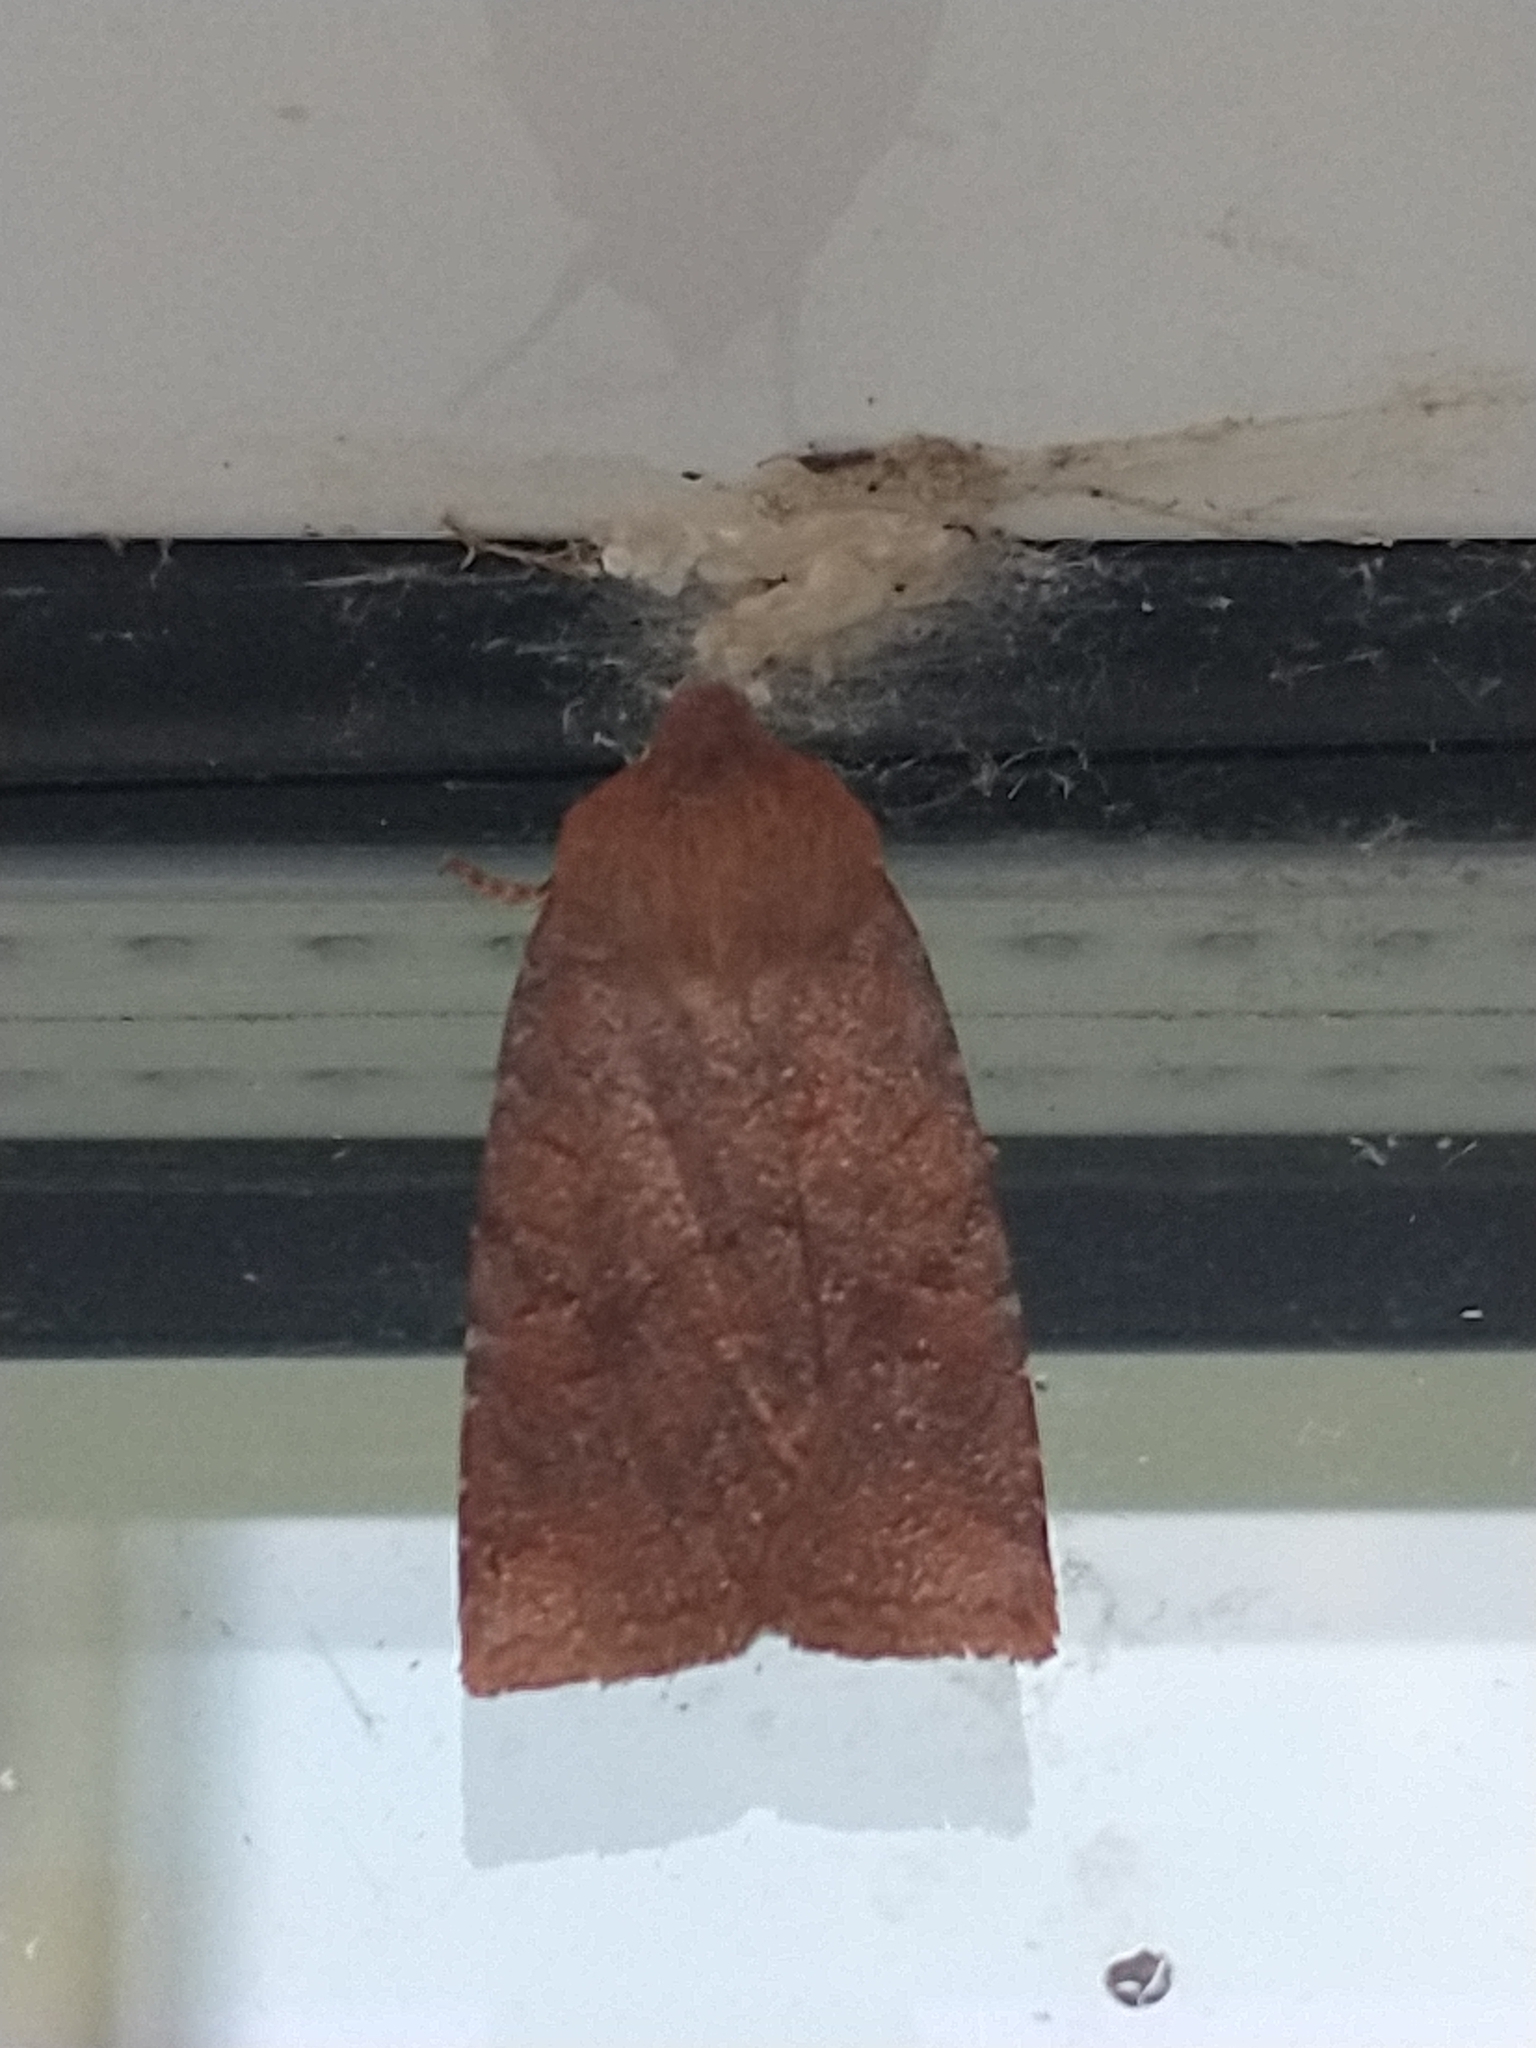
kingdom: Animalia
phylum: Arthropoda
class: Insecta
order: Lepidoptera
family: Noctuidae
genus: Conistra
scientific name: Conistra ligula
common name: Dark chestnut
